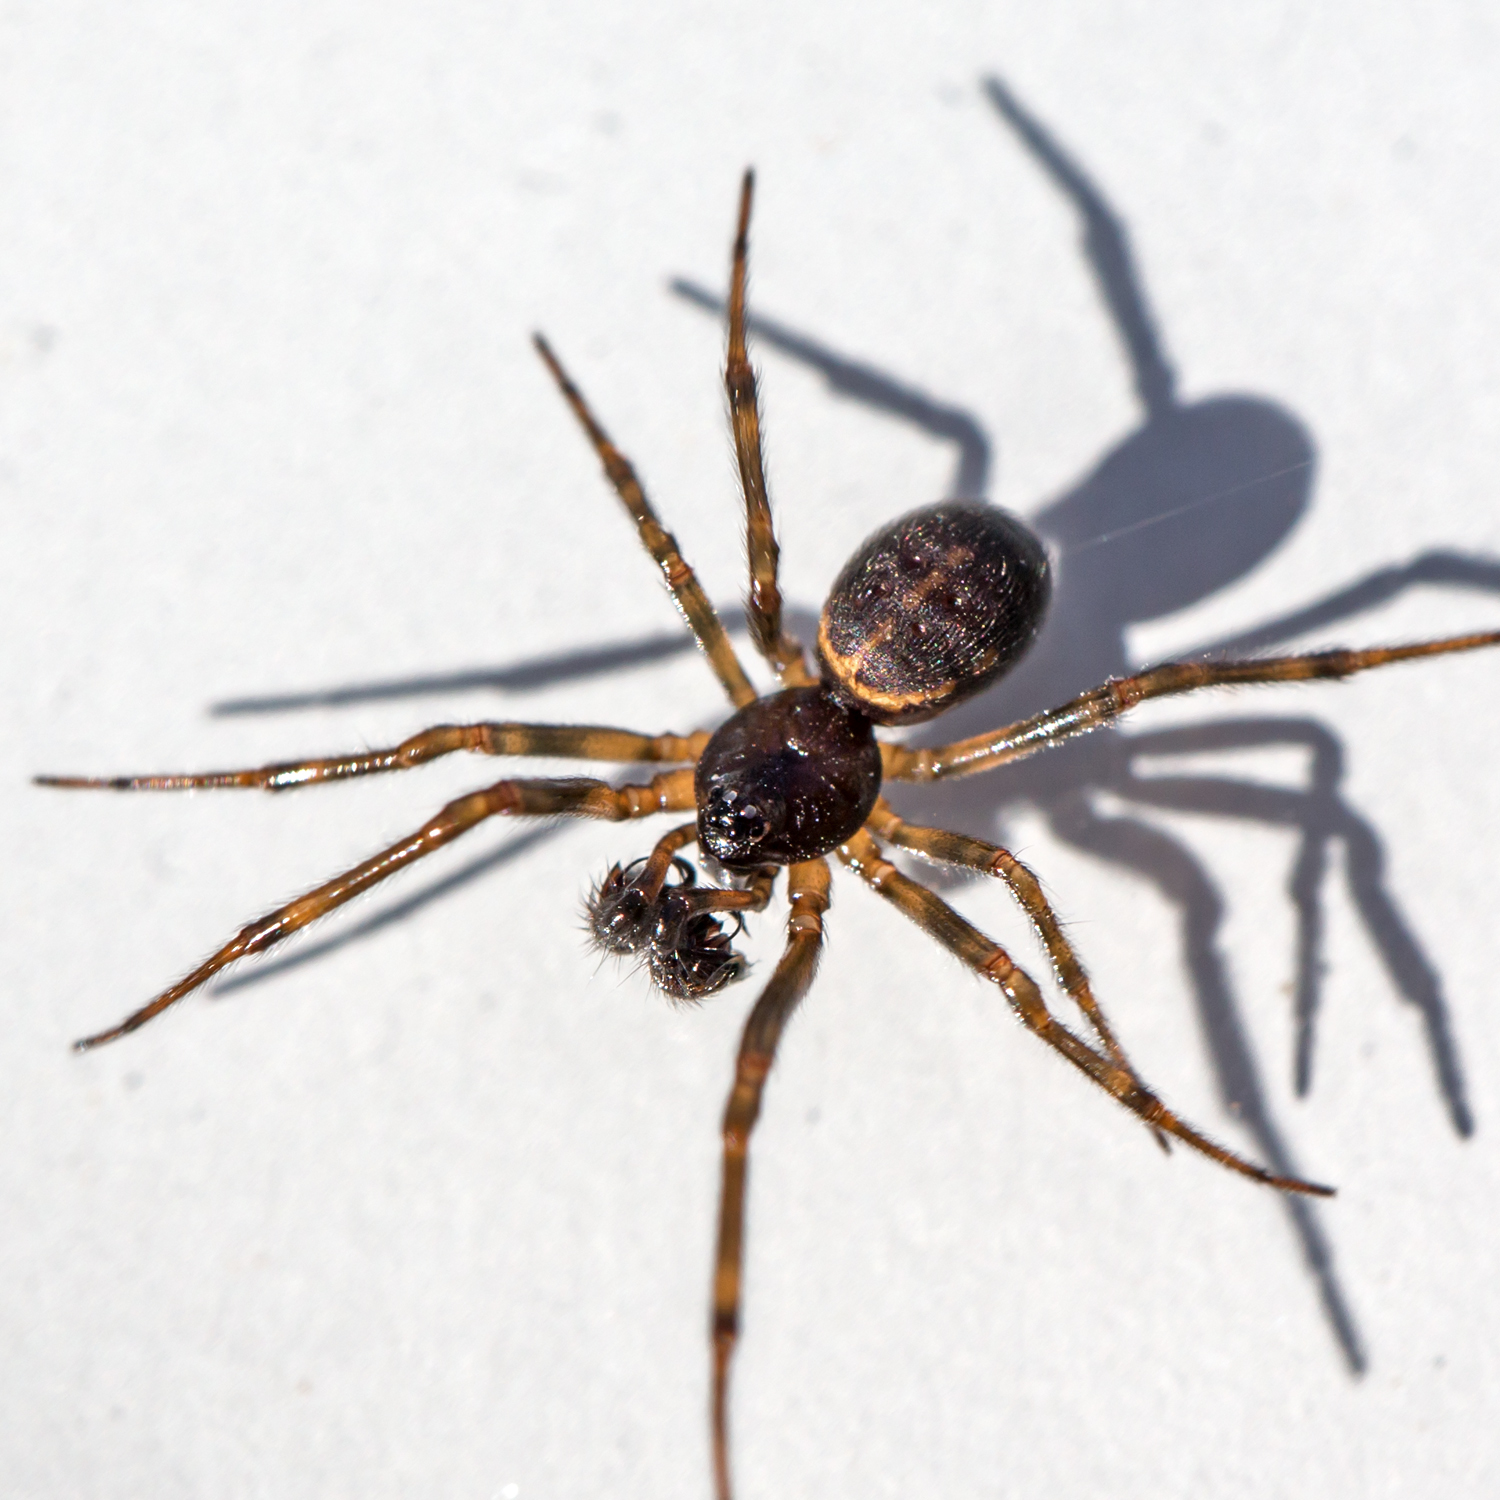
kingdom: Animalia
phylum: Arthropoda
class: Arachnida
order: Araneae
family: Theridiidae
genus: Steatoda
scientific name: Steatoda borealis
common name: Boreal combfoot
